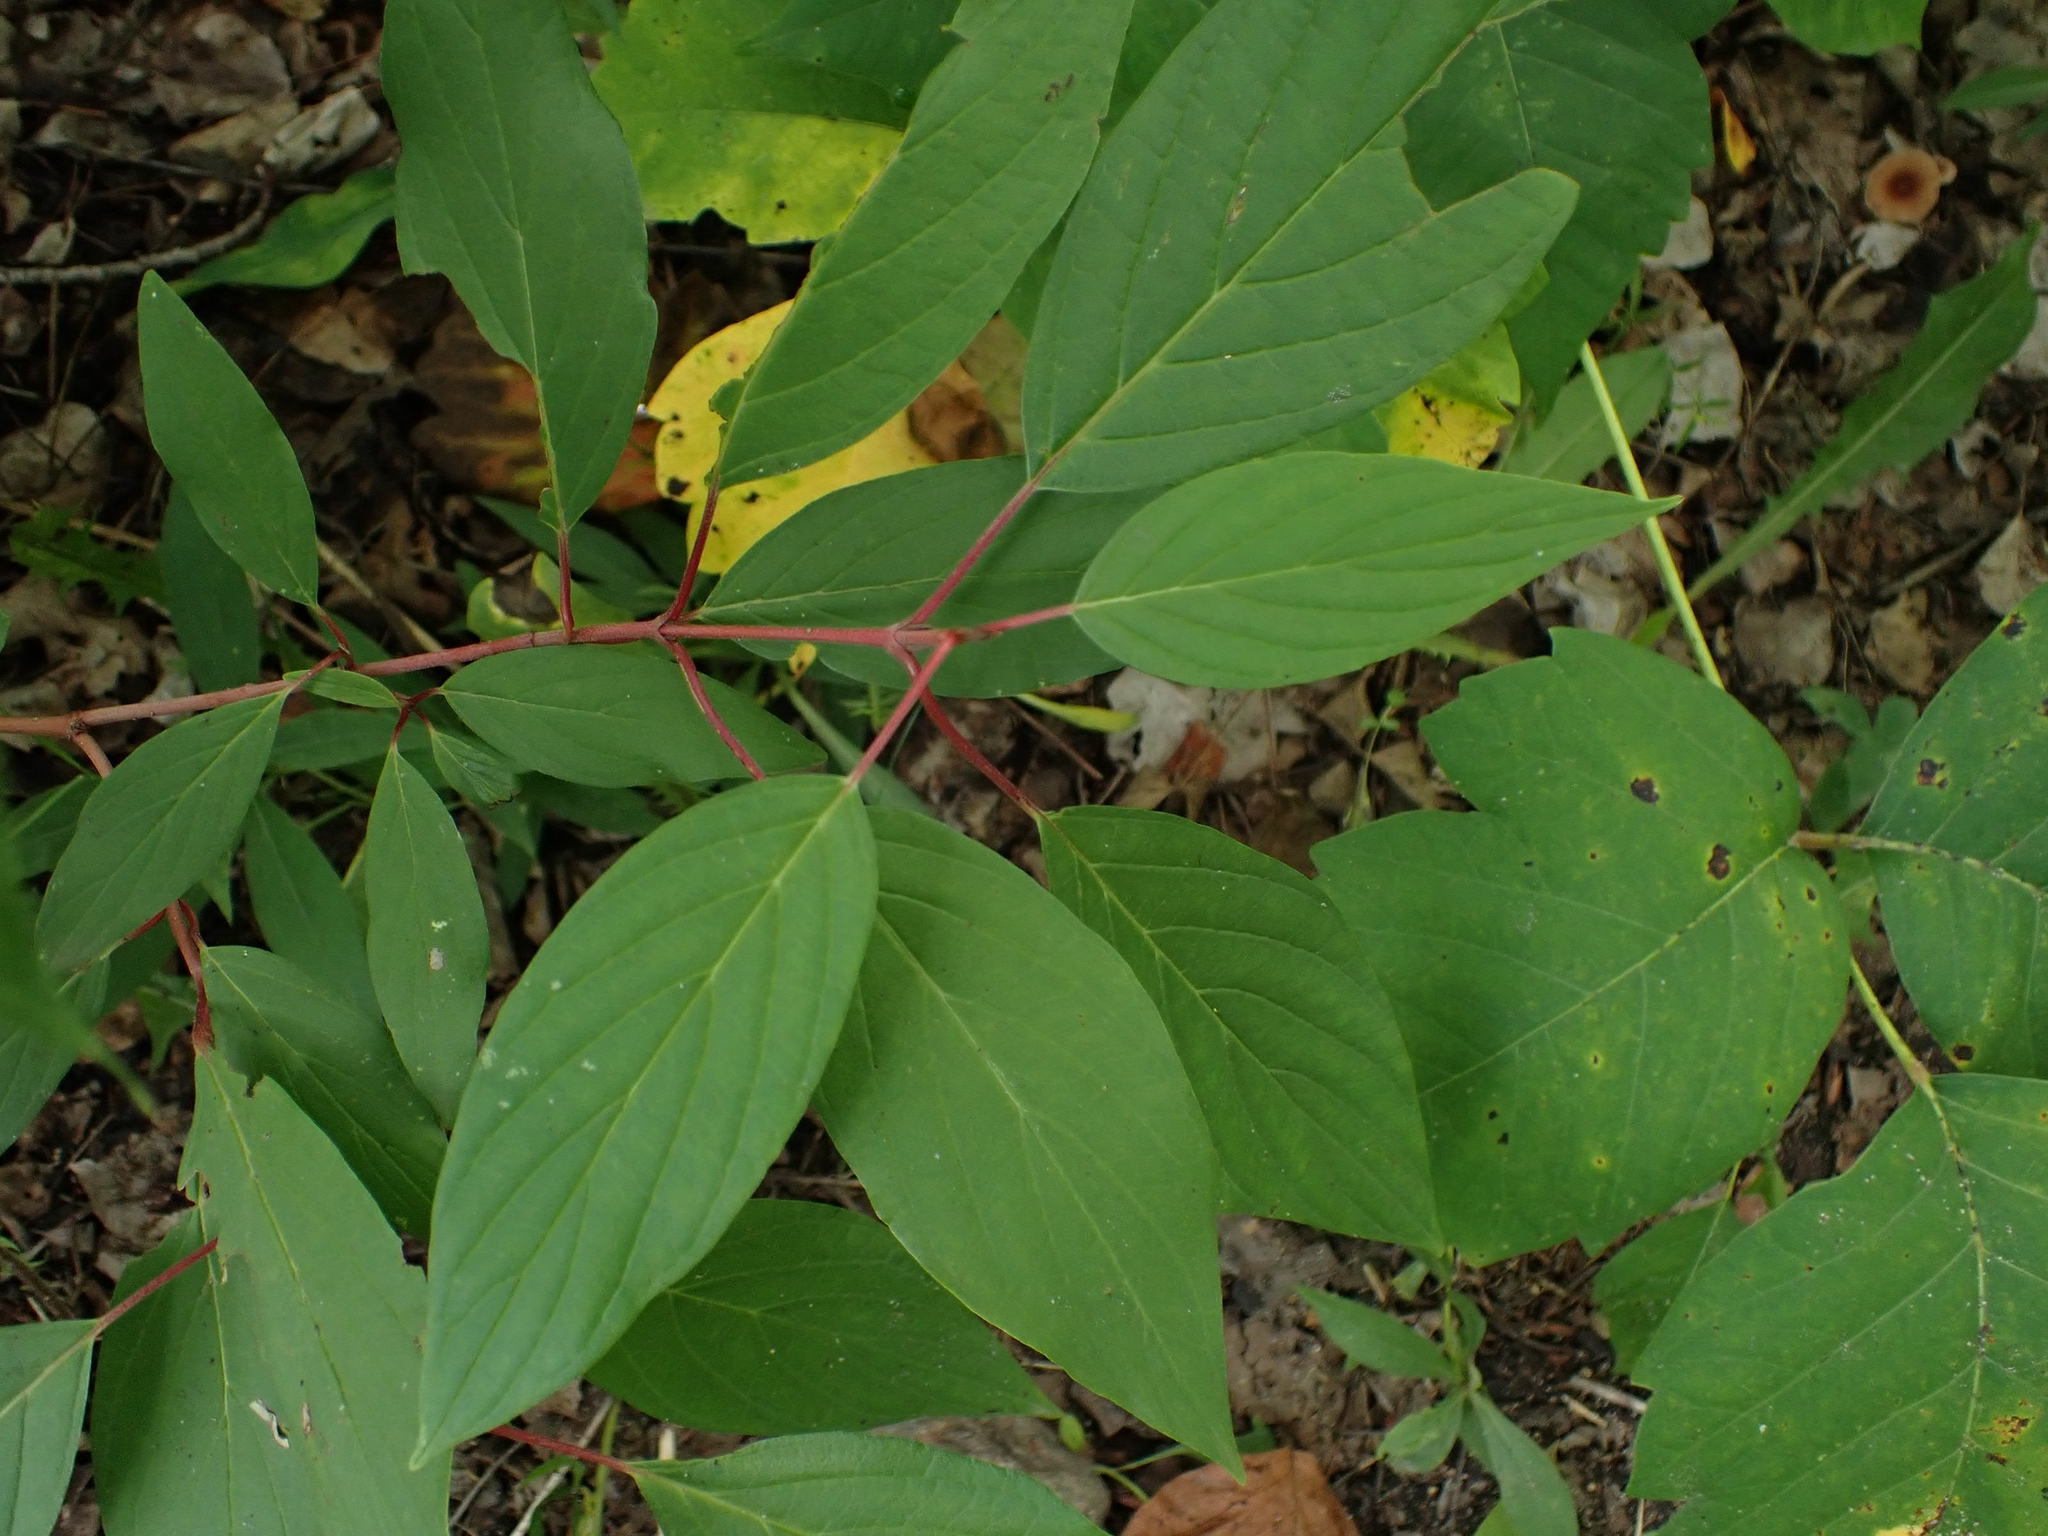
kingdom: Plantae
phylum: Tracheophyta
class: Magnoliopsida
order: Cornales
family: Cornaceae
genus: Cornus
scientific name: Cornus sericea
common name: Red-osier dogwood
